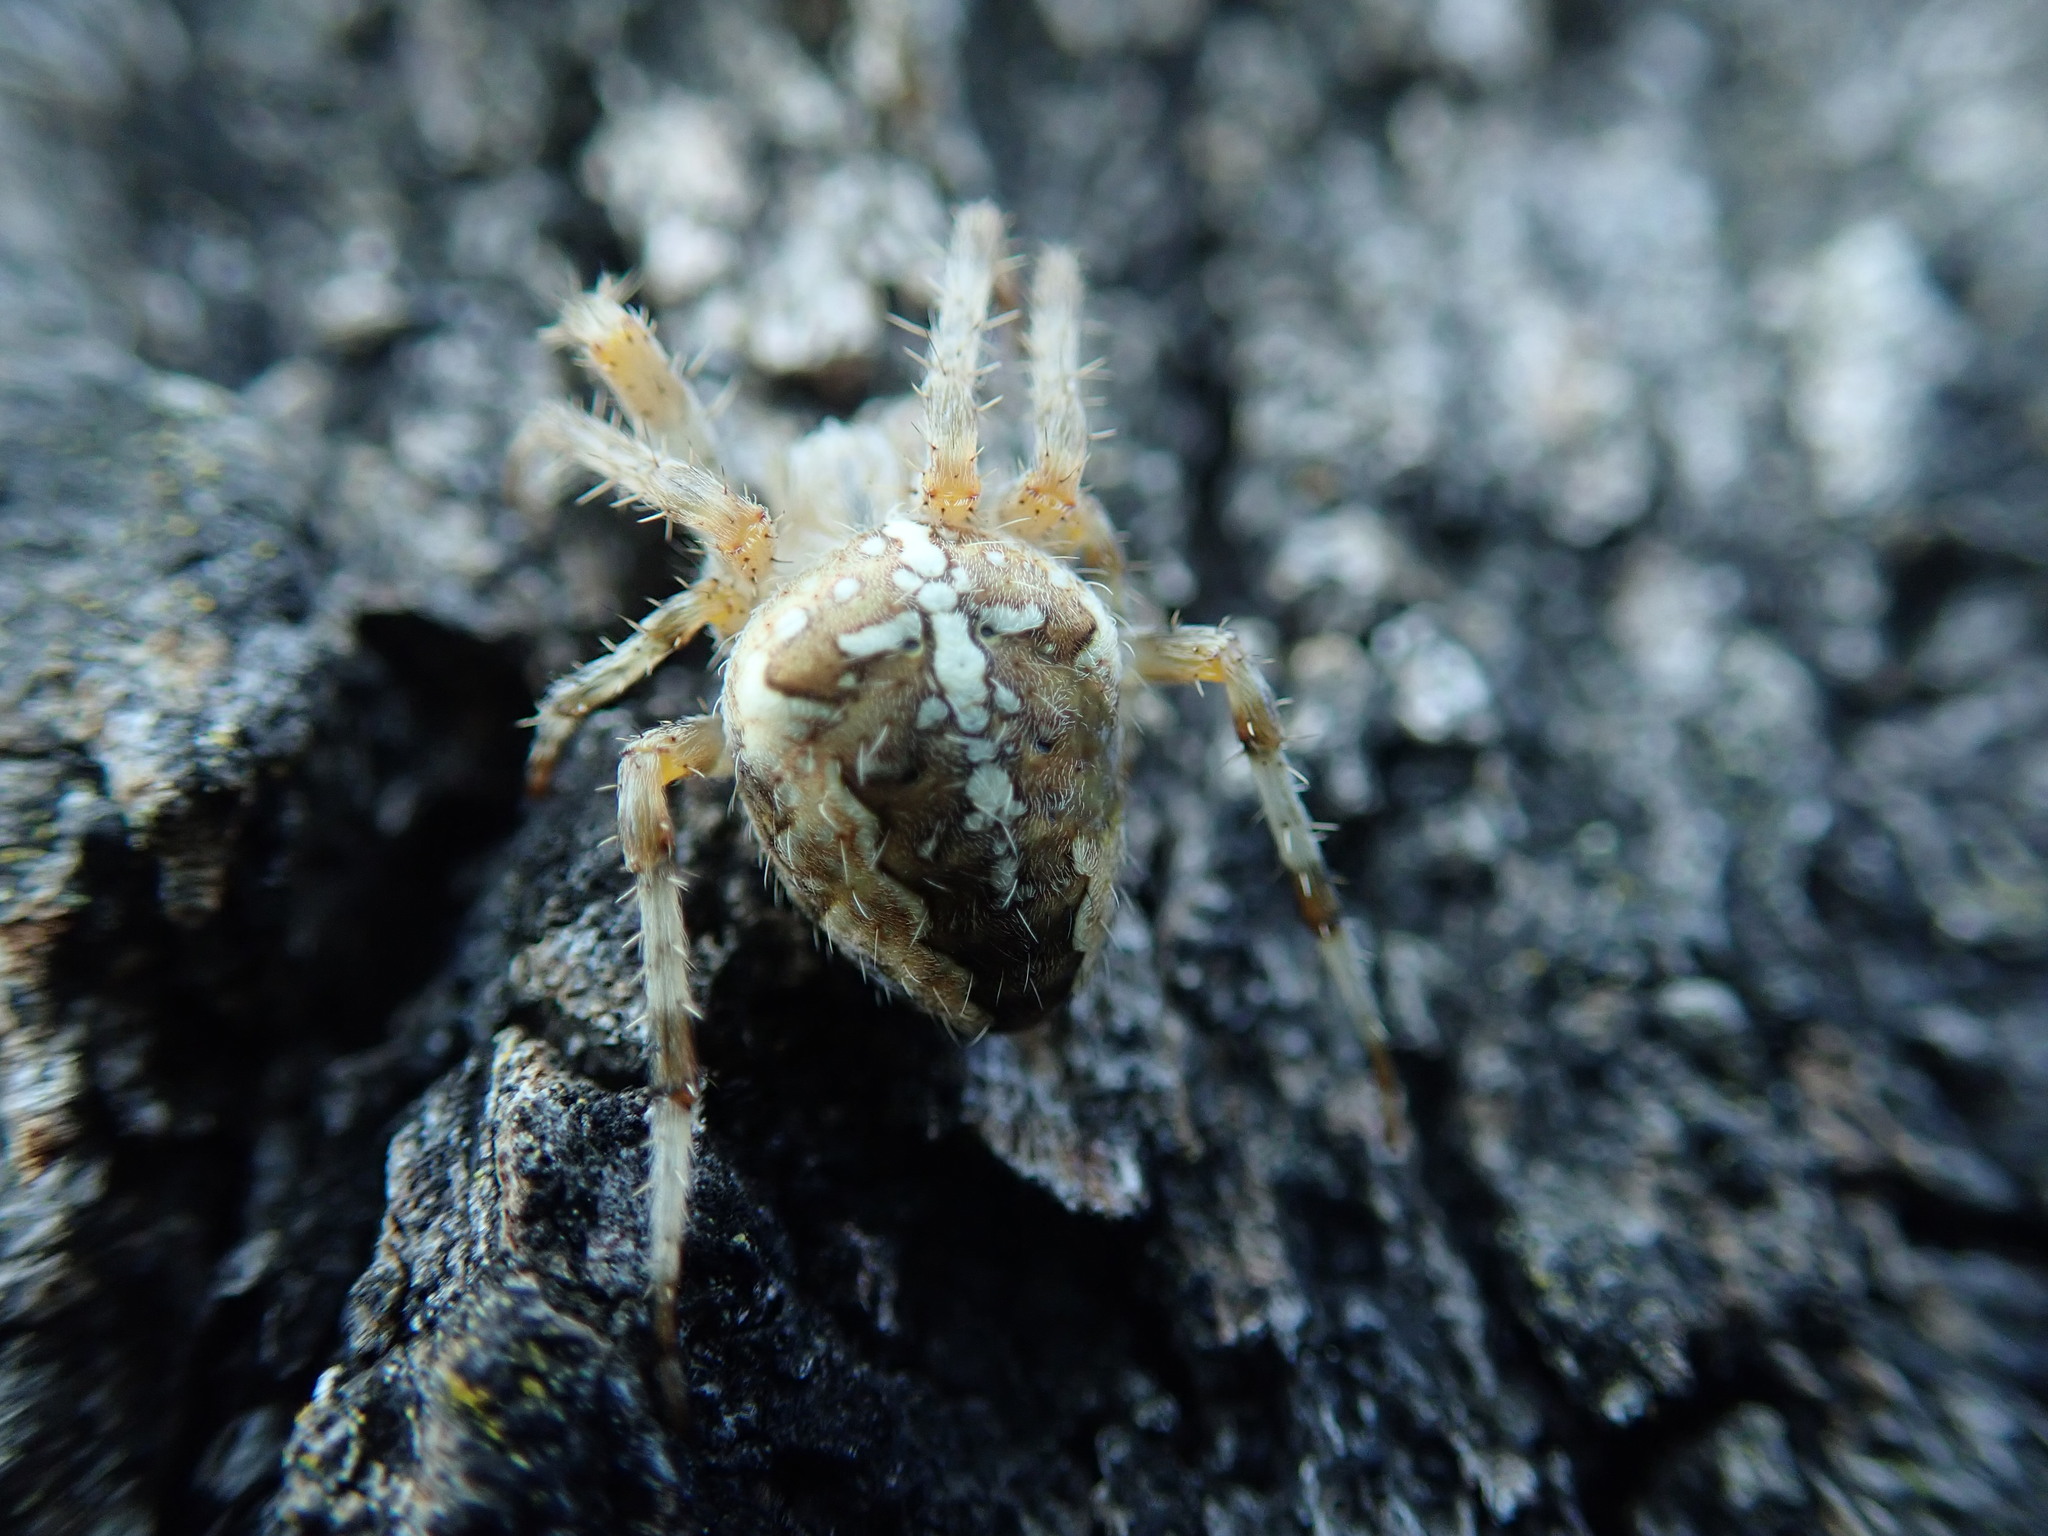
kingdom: Animalia
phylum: Arthropoda
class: Arachnida
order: Araneae
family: Araneidae
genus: Araneus
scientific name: Araneus diadematus
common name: Cross orbweaver
